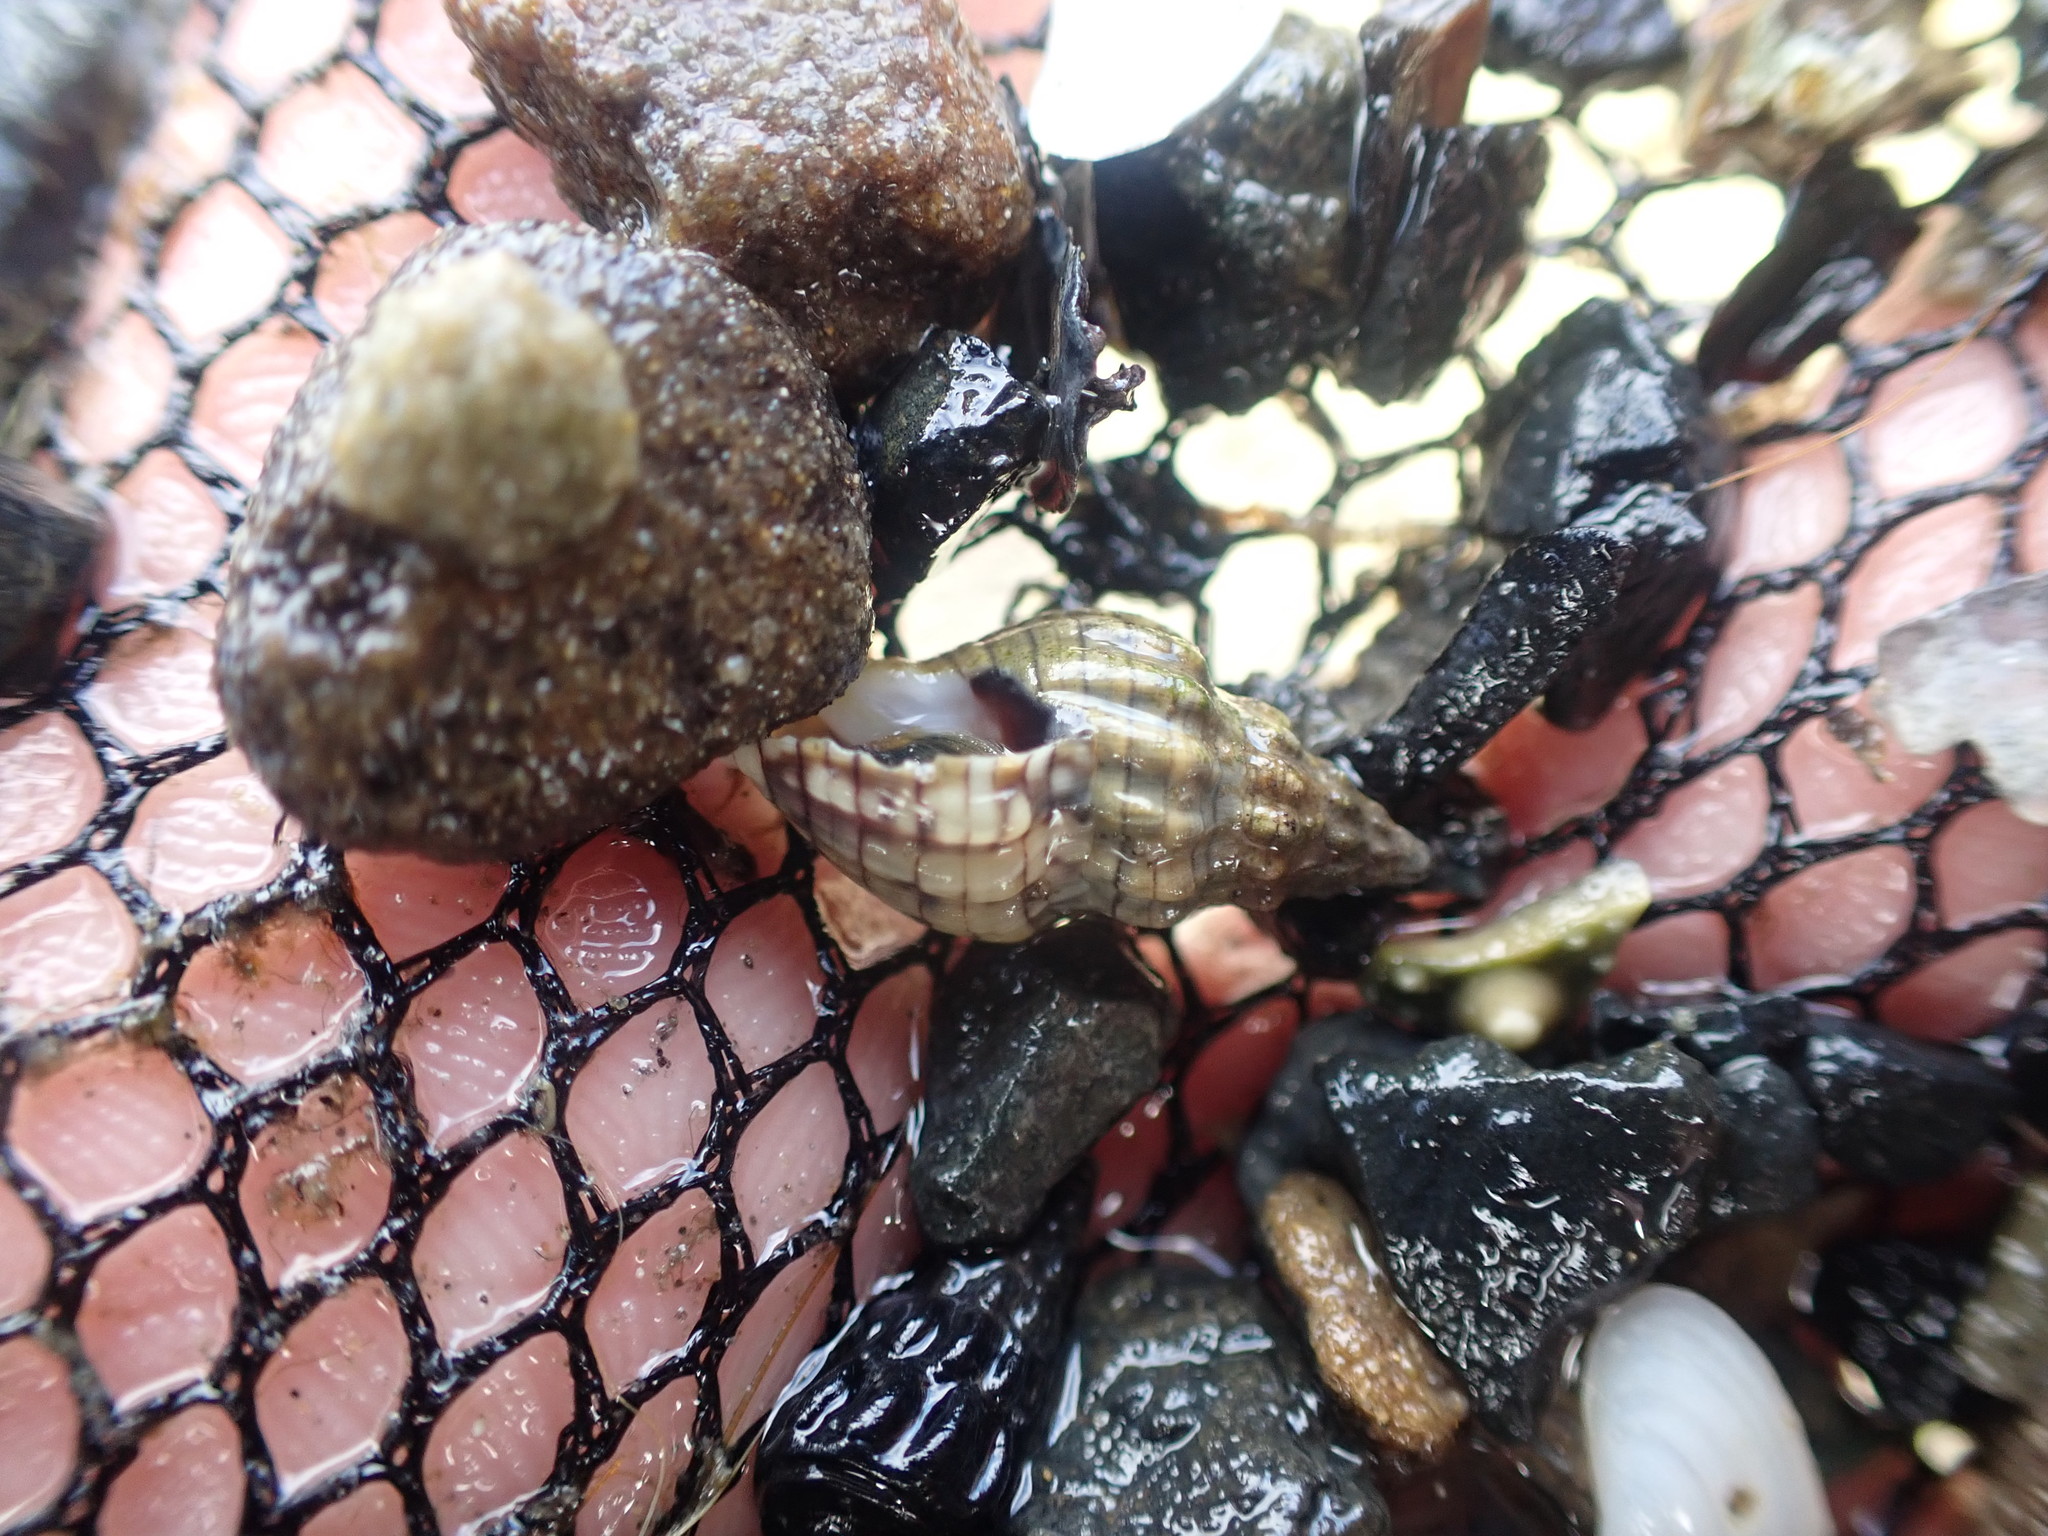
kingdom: Animalia
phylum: Mollusca
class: Gastropoda
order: Neogastropoda
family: Cominellidae
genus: Cominella
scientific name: Cominella quoyana
